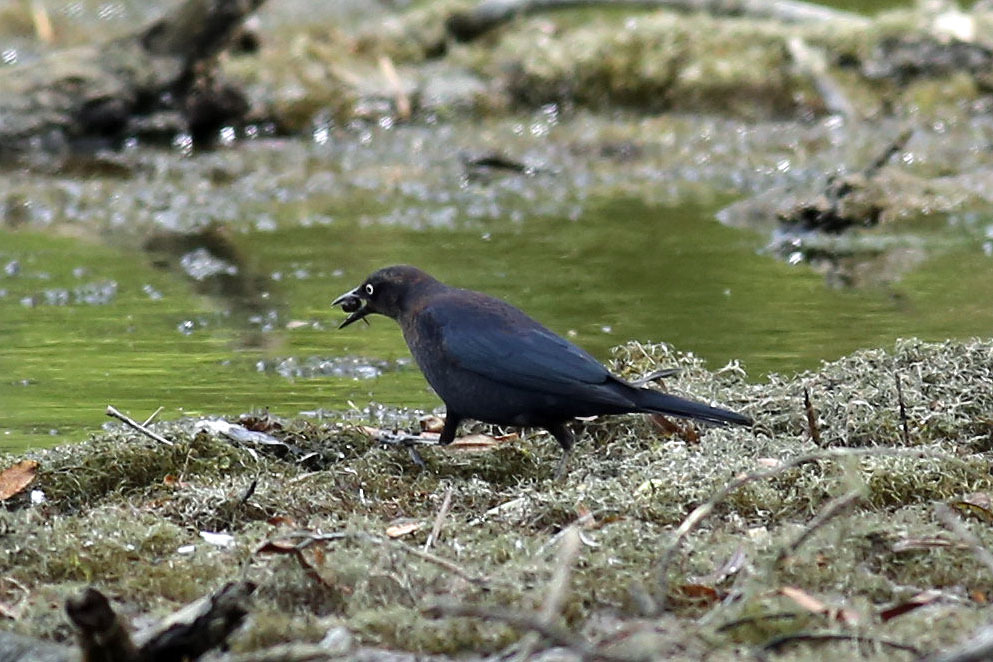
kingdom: Animalia
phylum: Chordata
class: Aves
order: Passeriformes
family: Icteridae
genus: Euphagus
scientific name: Euphagus carolinus
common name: Rusty blackbird
